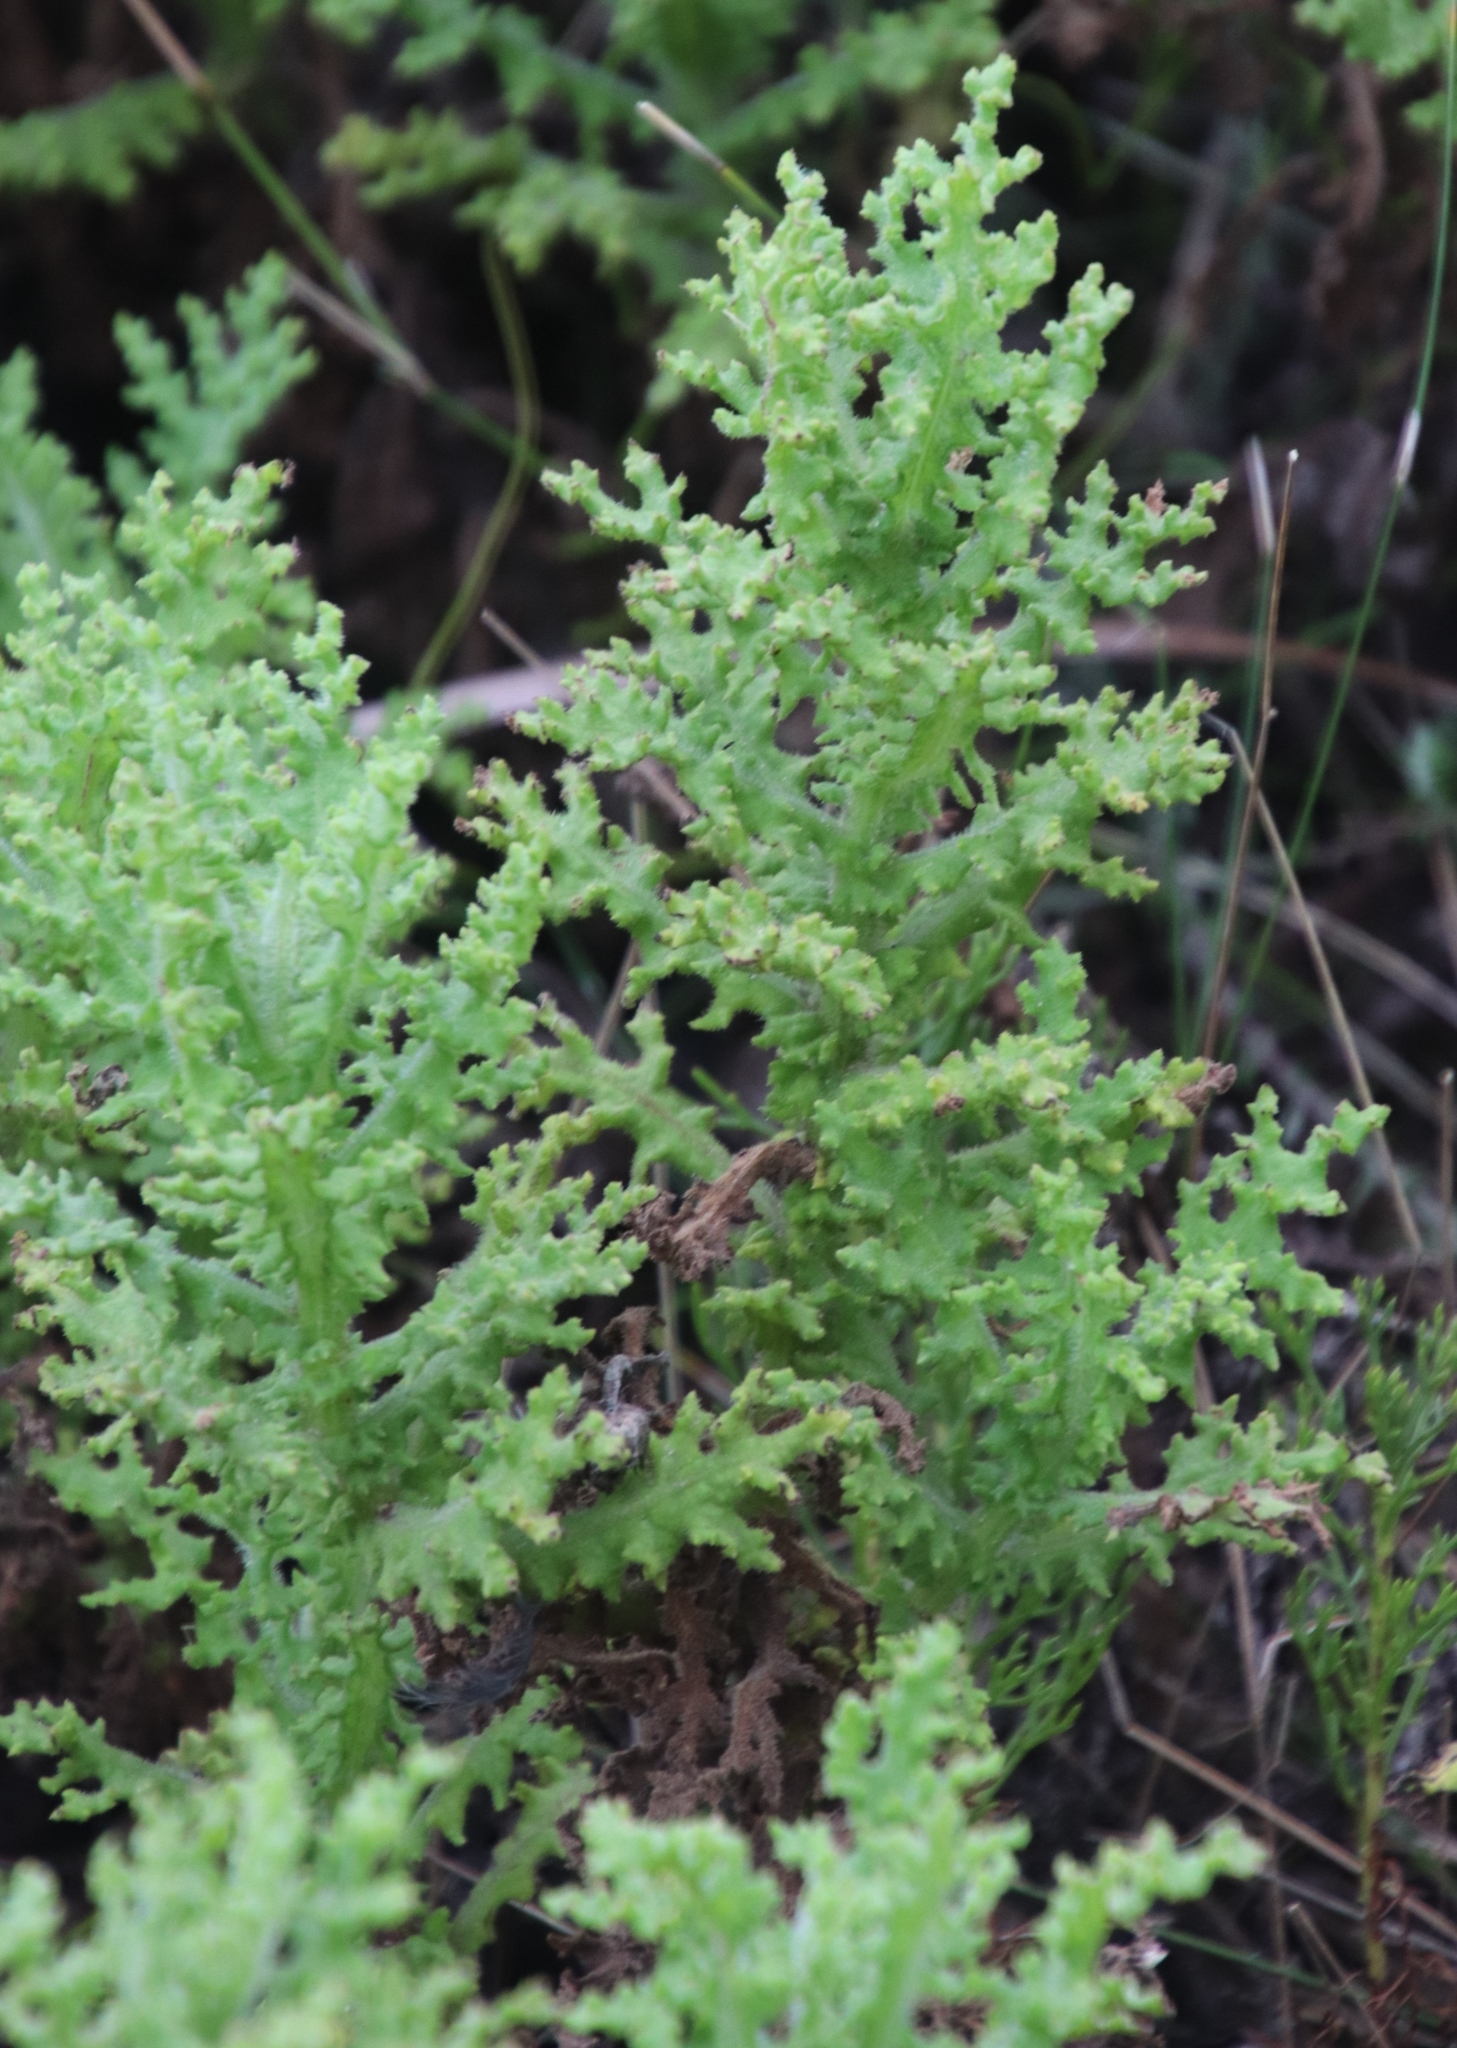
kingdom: Plantae
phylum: Tracheophyta
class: Magnoliopsida
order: Asterales
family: Asteraceae
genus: Arctotis
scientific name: Arctotis aspera
